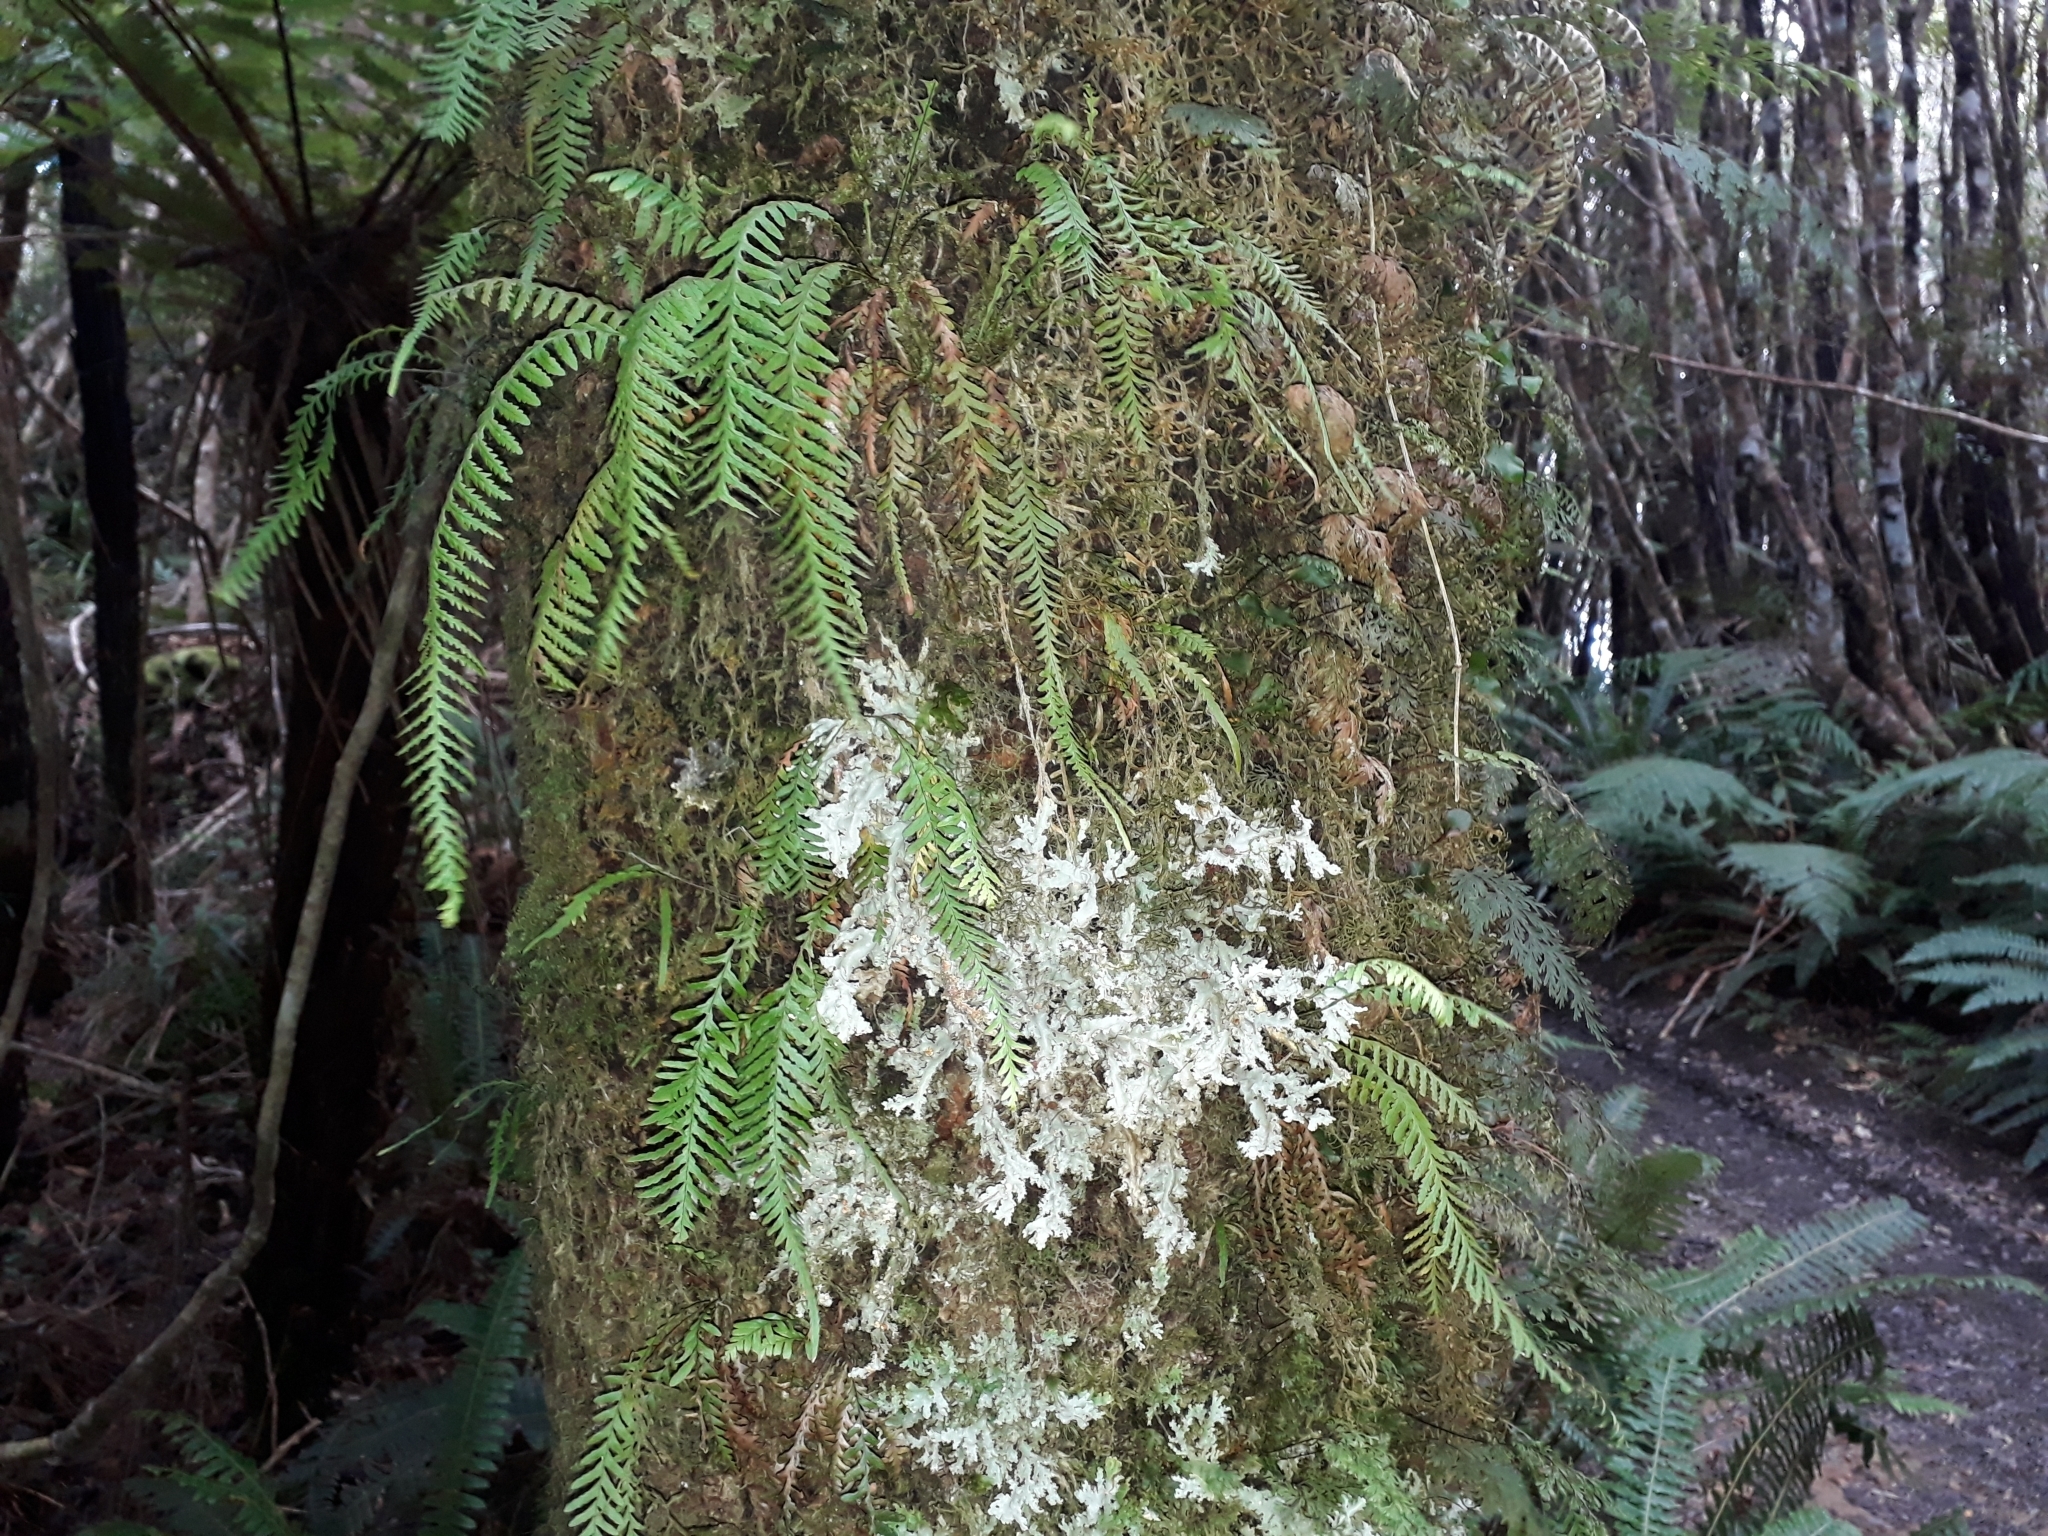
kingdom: Plantae
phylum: Tracheophyta
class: Polypodiopsida
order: Polypodiales
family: Polypodiaceae
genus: Notogrammitis
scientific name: Notogrammitis heterophylla
